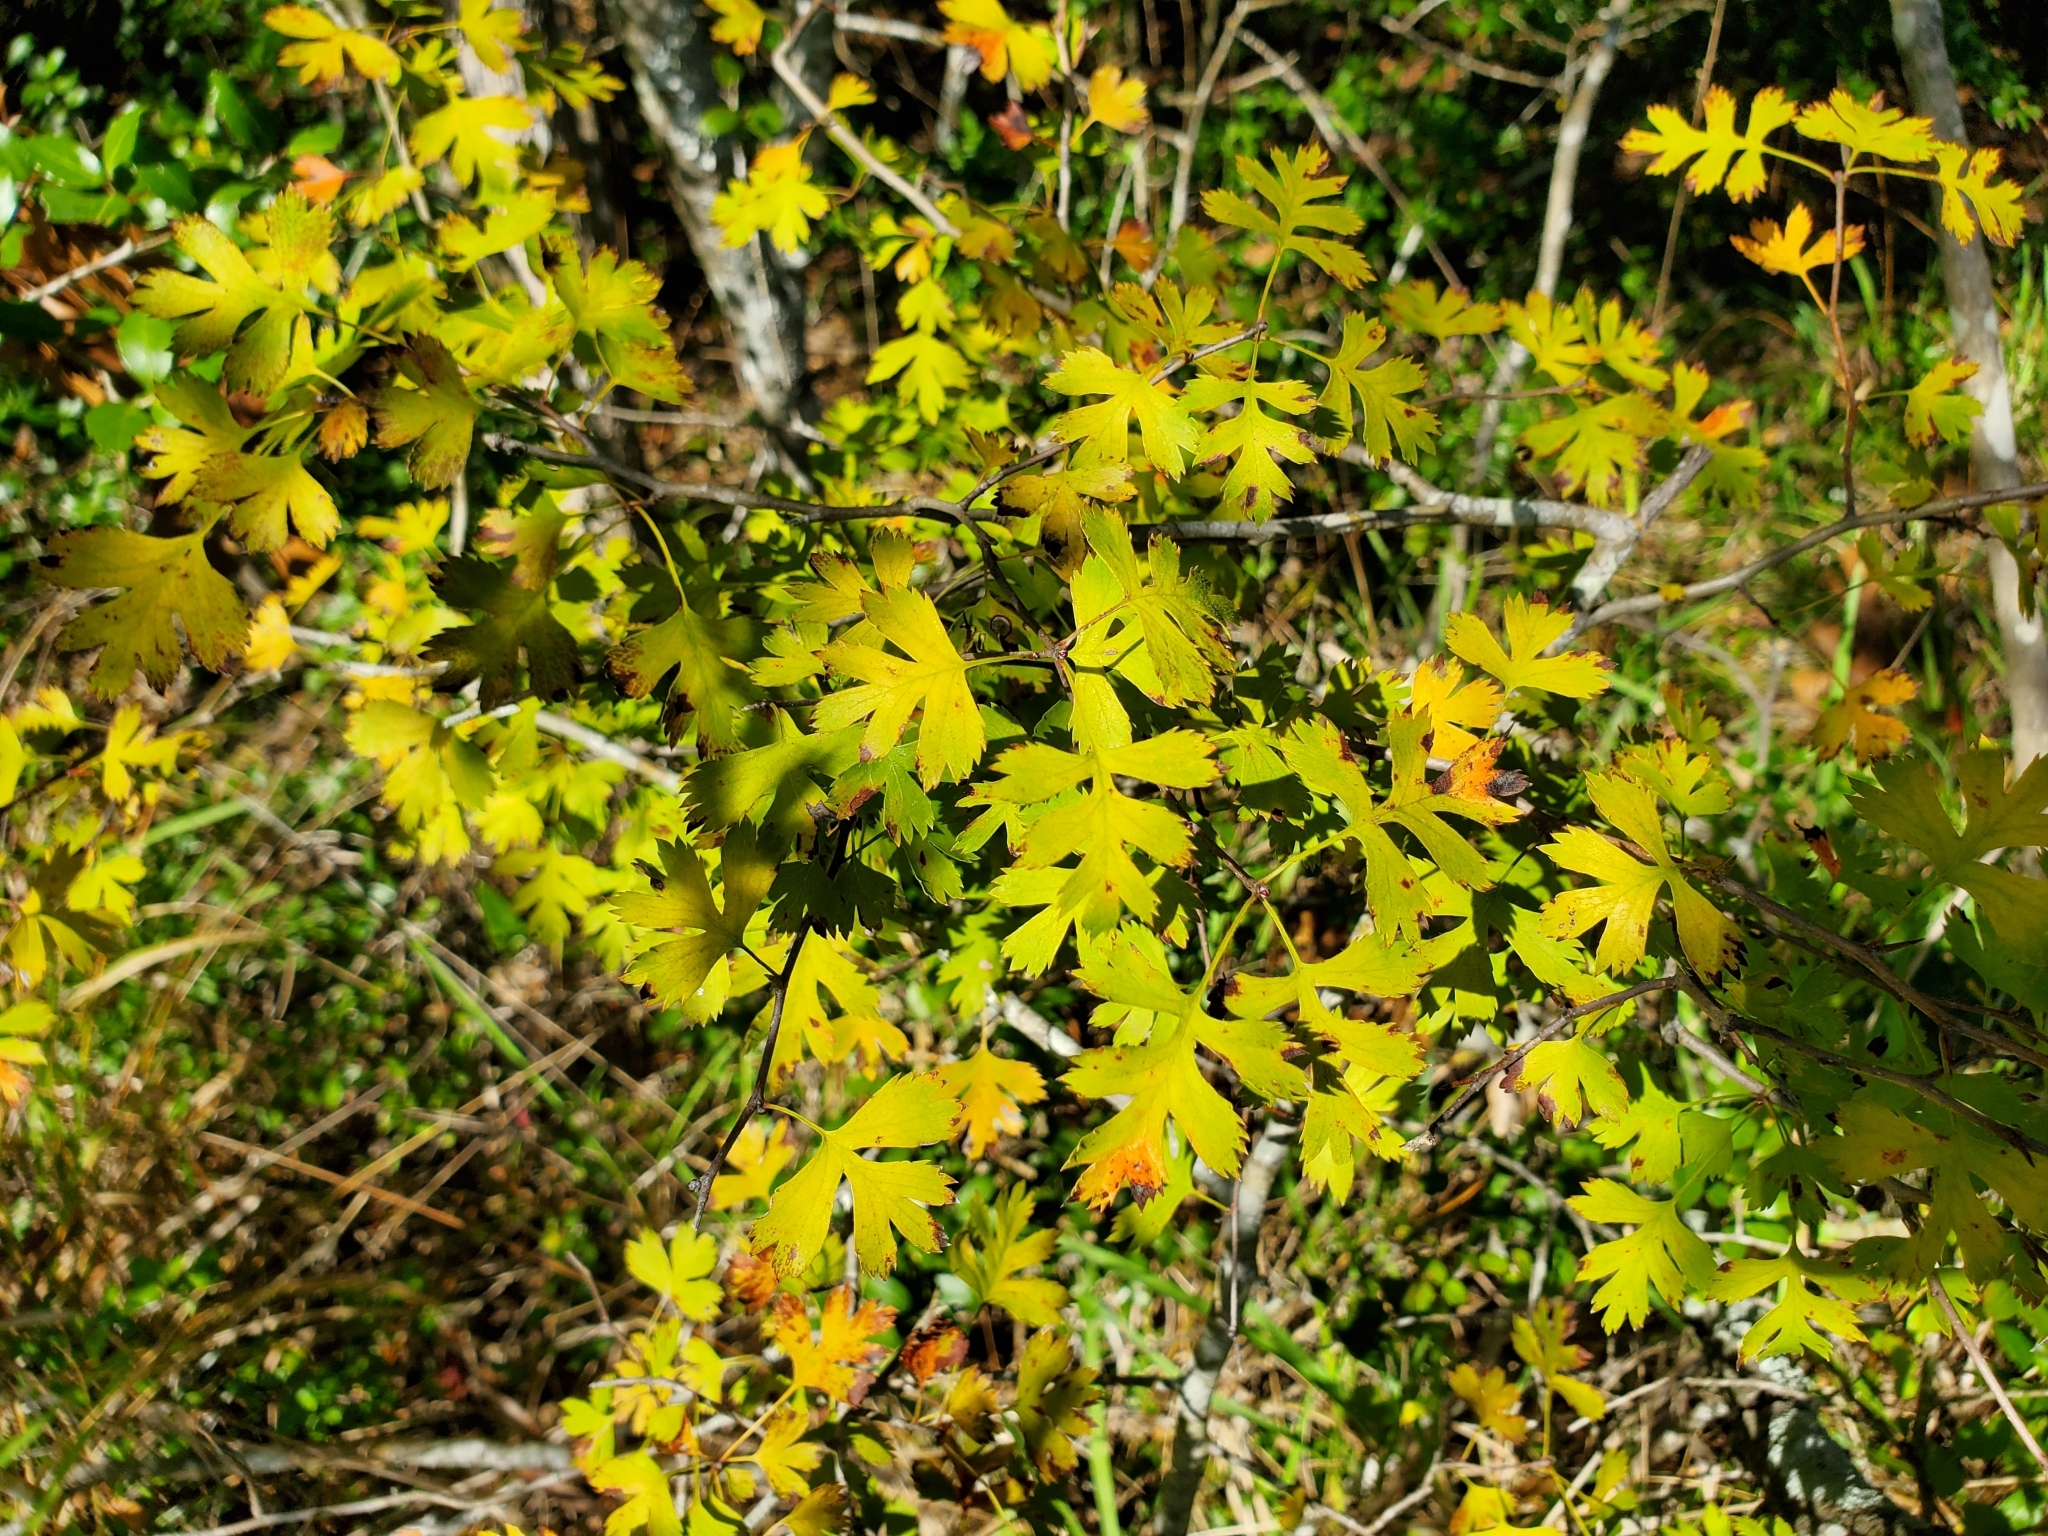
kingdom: Plantae
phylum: Tracheophyta
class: Magnoliopsida
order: Rosales
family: Rosaceae
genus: Crataegus
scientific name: Crataegus marshallii
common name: Parsley-hawthorn
